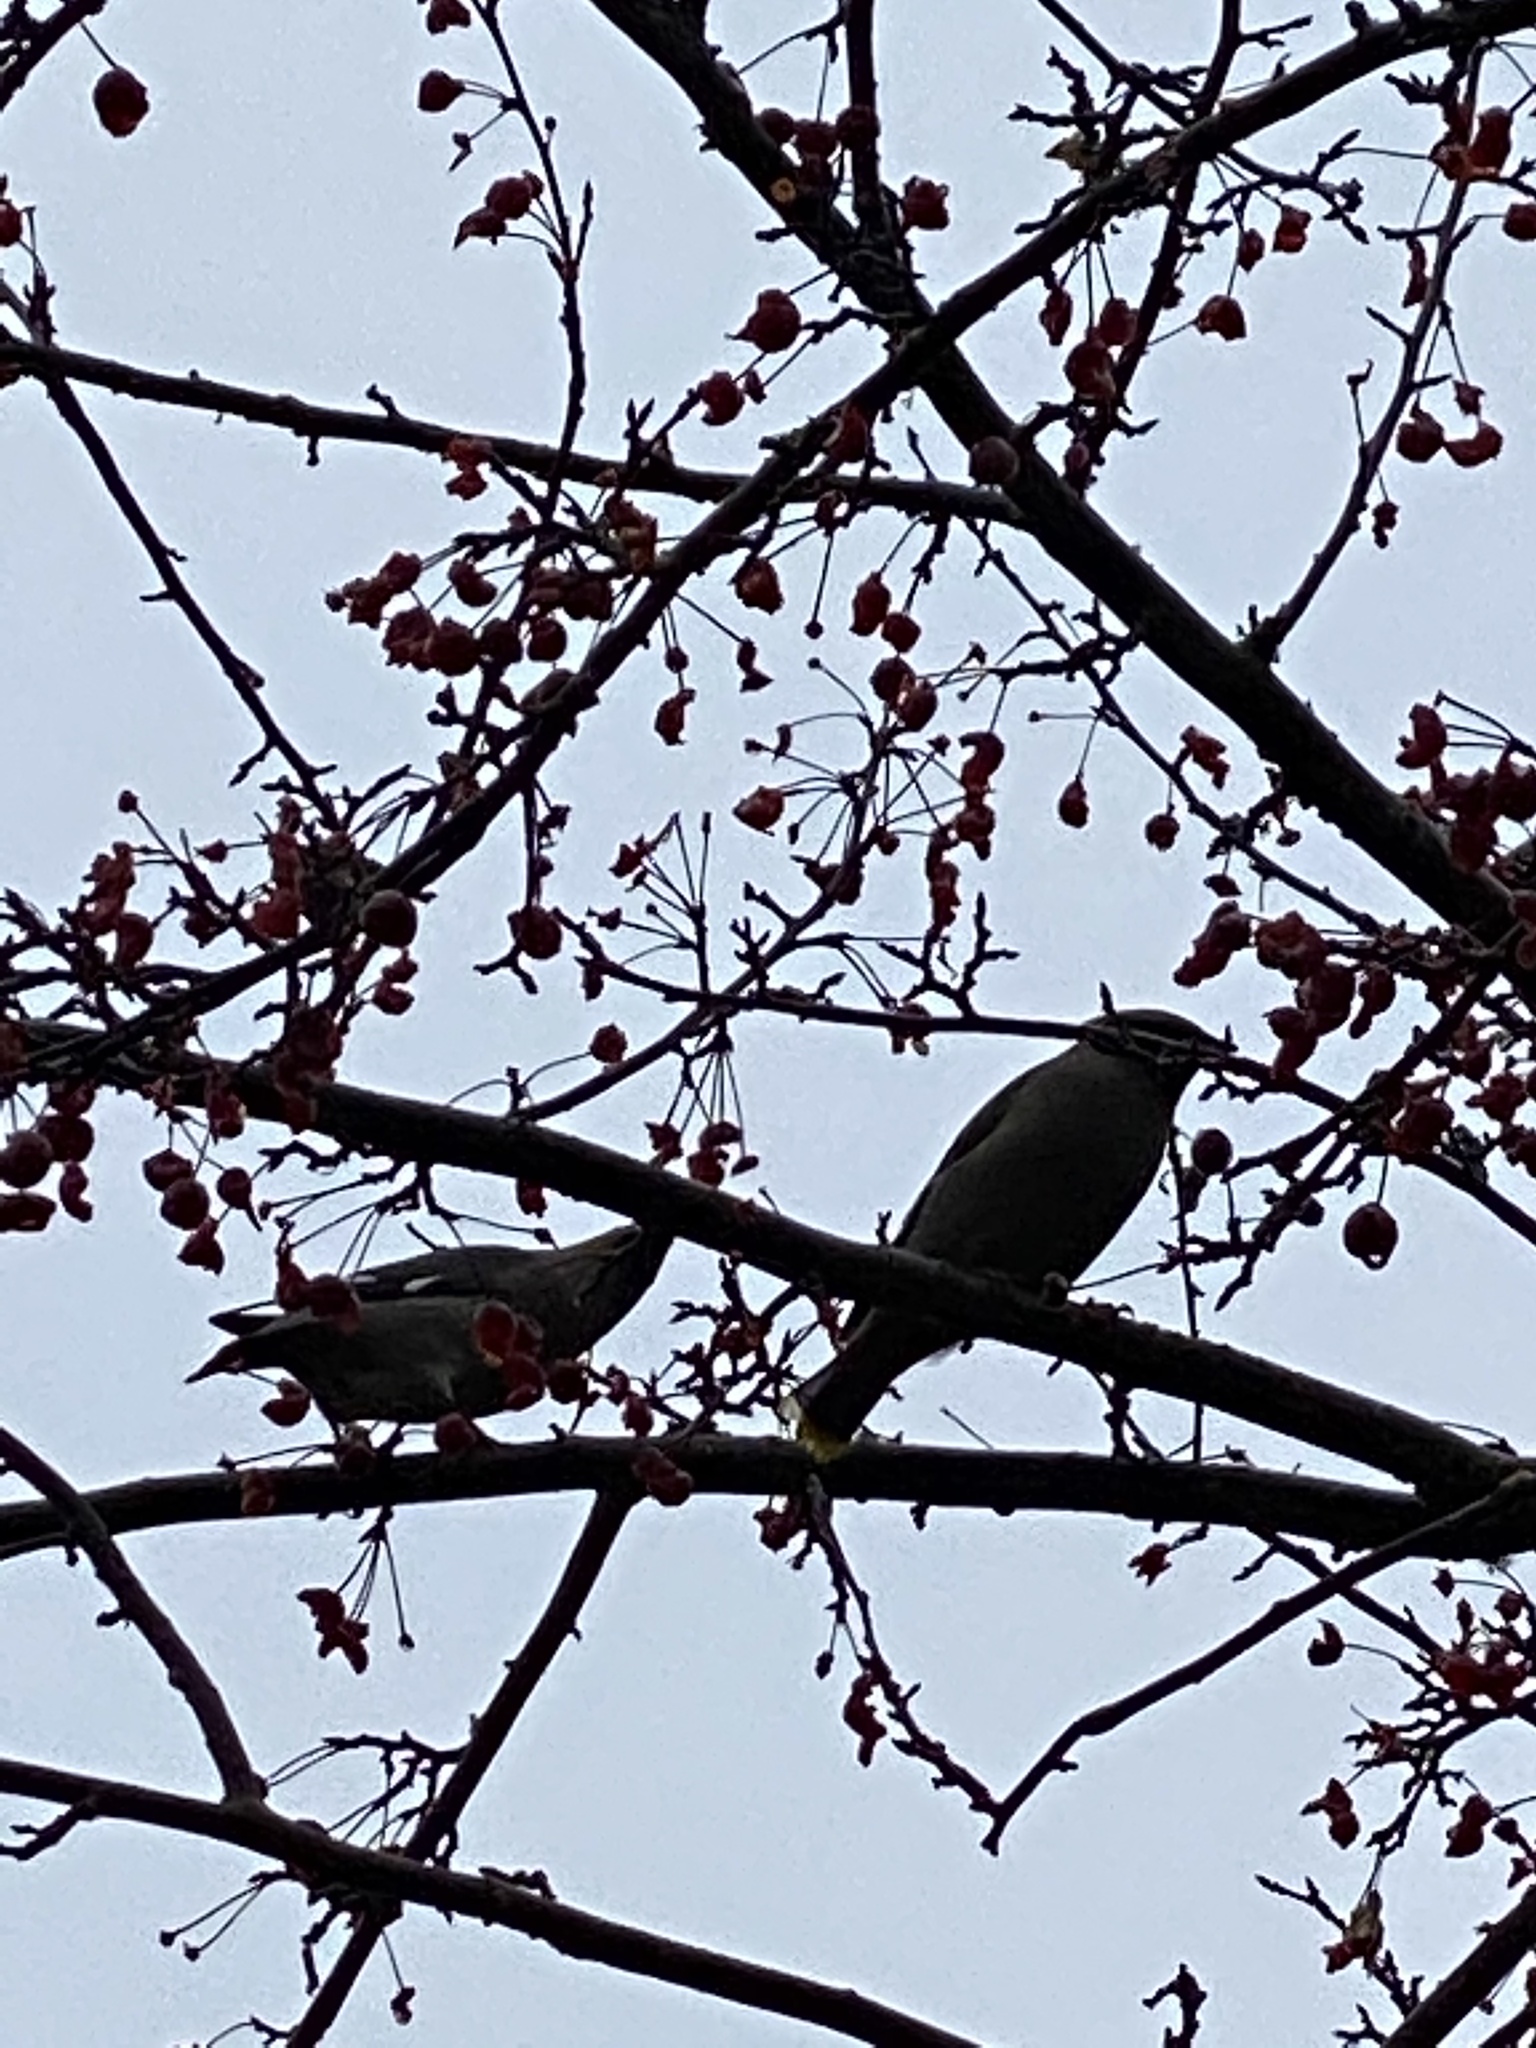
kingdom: Animalia
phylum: Chordata
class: Aves
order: Passeriformes
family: Bombycillidae
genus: Bombycilla
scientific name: Bombycilla garrulus
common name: Bohemian waxwing
